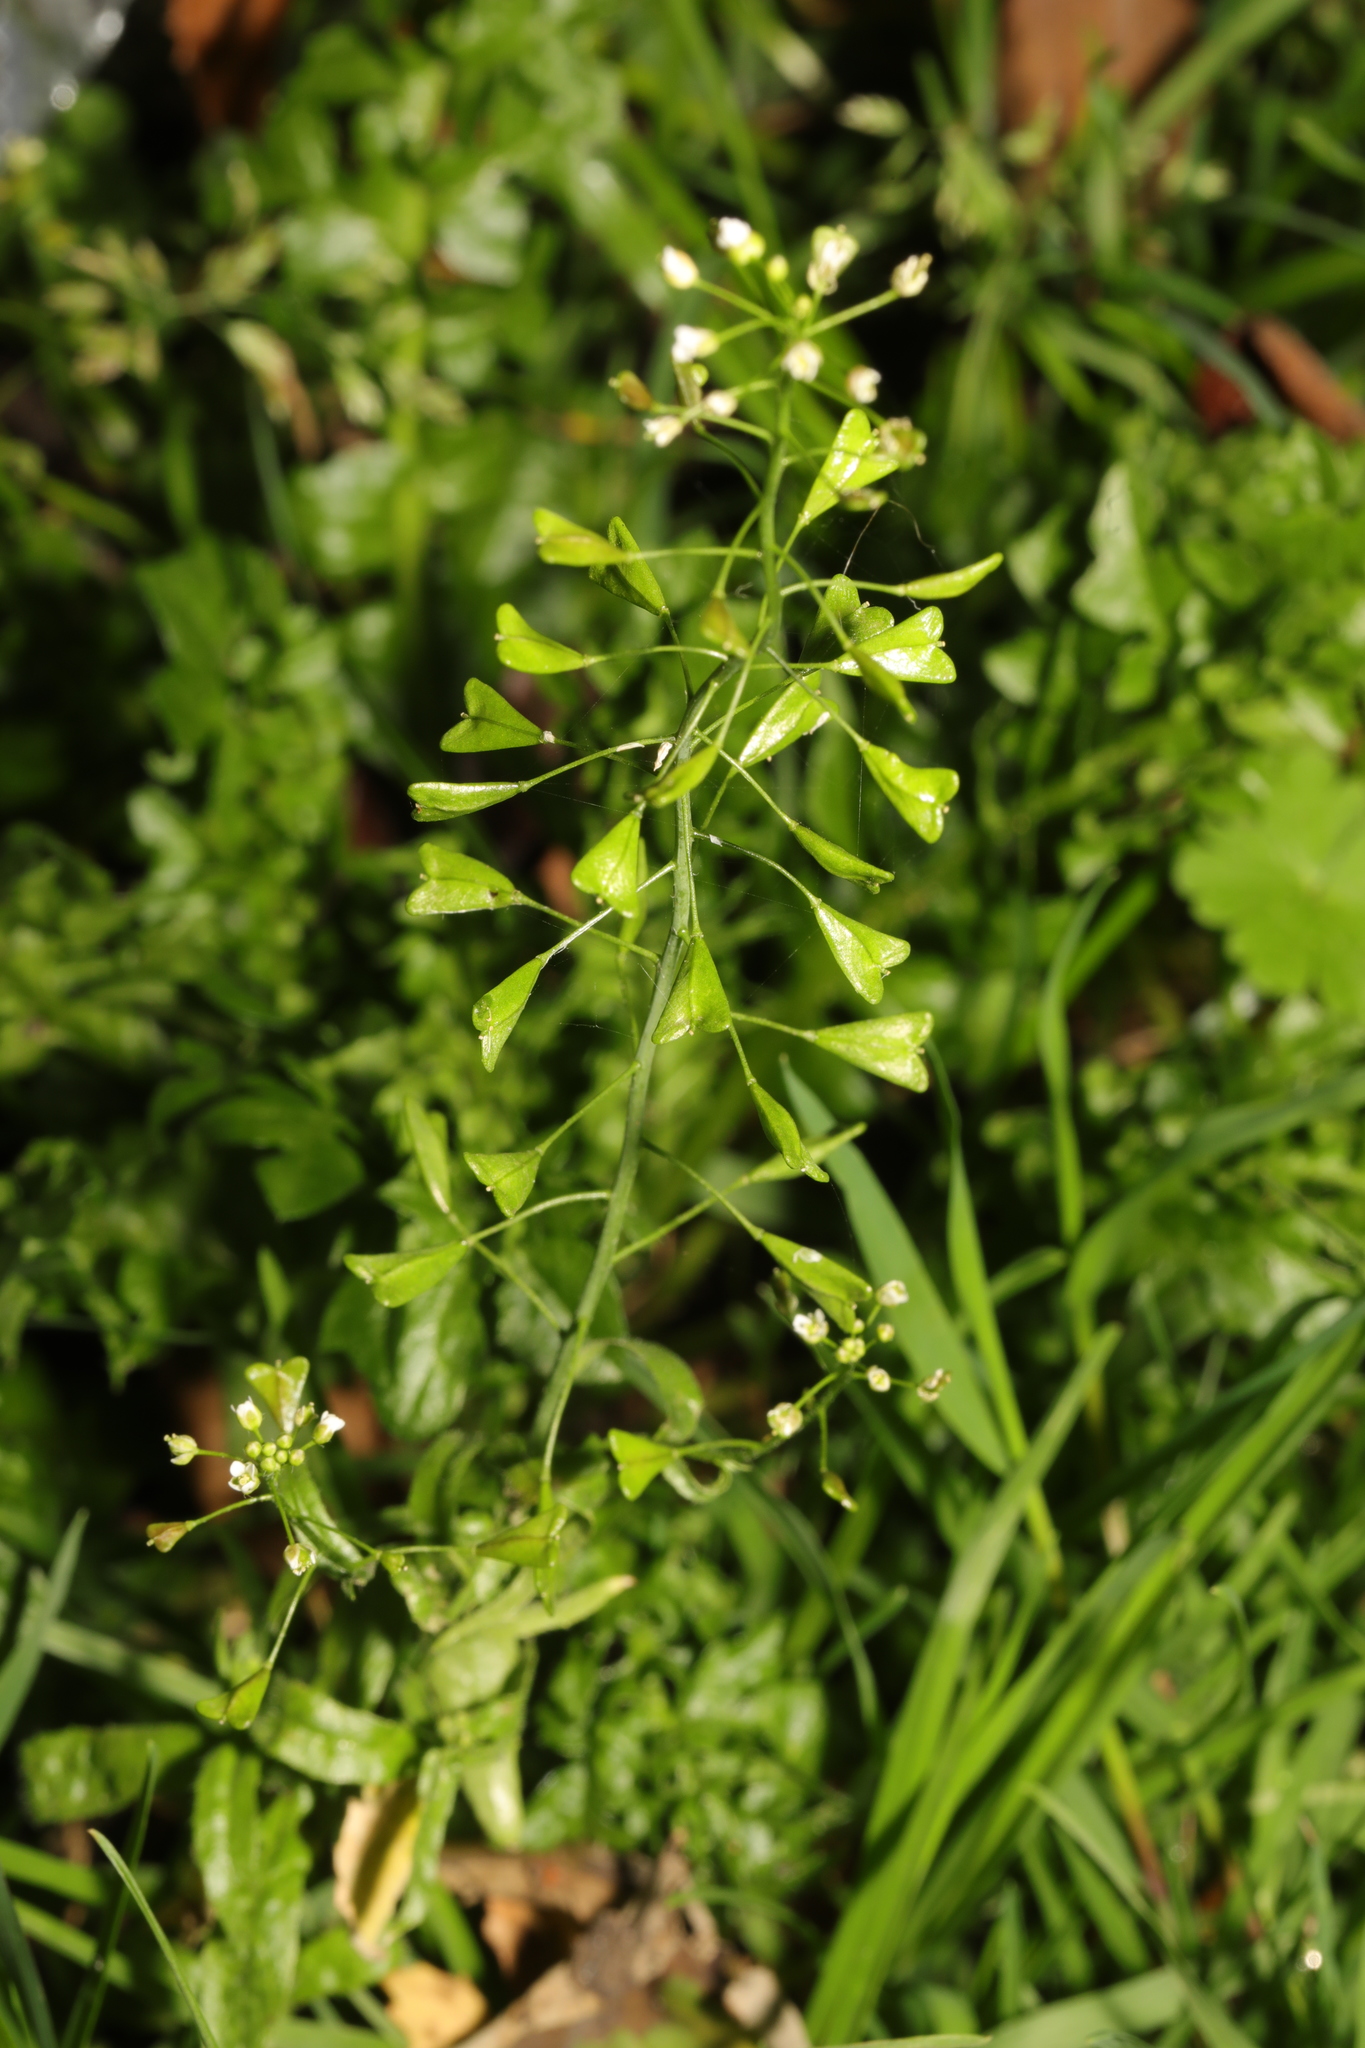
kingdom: Plantae
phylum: Tracheophyta
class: Magnoliopsida
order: Brassicales
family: Brassicaceae
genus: Capsella
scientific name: Capsella bursa-pastoris
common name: Shepherd's purse
